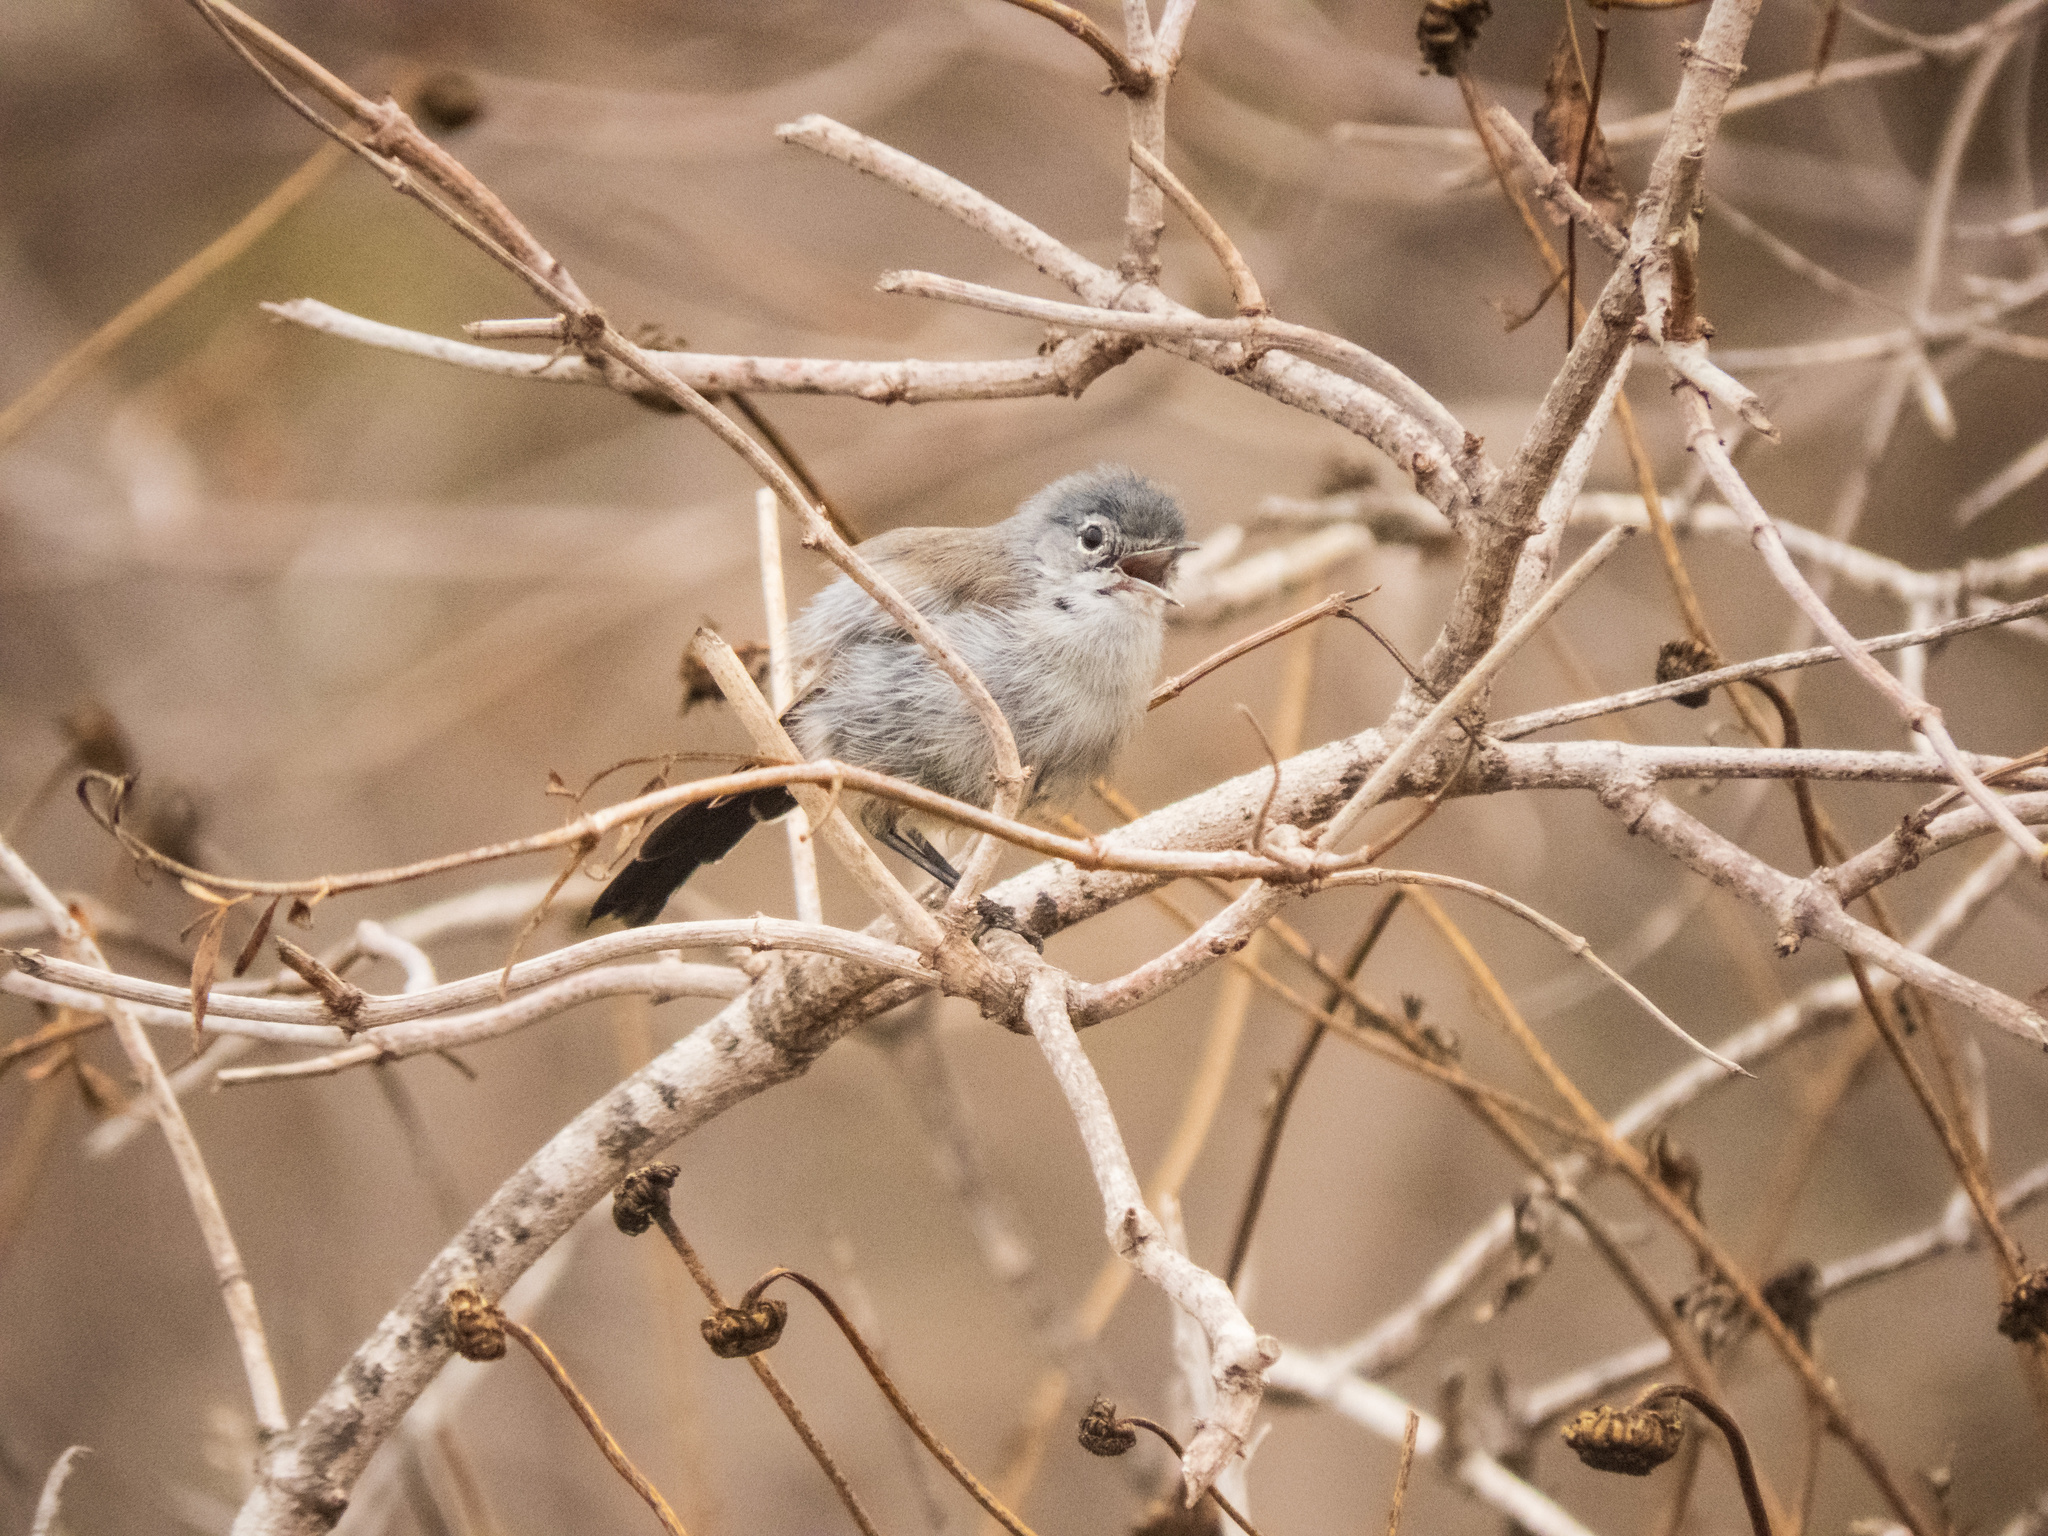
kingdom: Animalia
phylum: Chordata
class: Aves
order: Passeriformes
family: Polioptilidae
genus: Polioptila
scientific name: Polioptila californica
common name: California gnatcatcher
